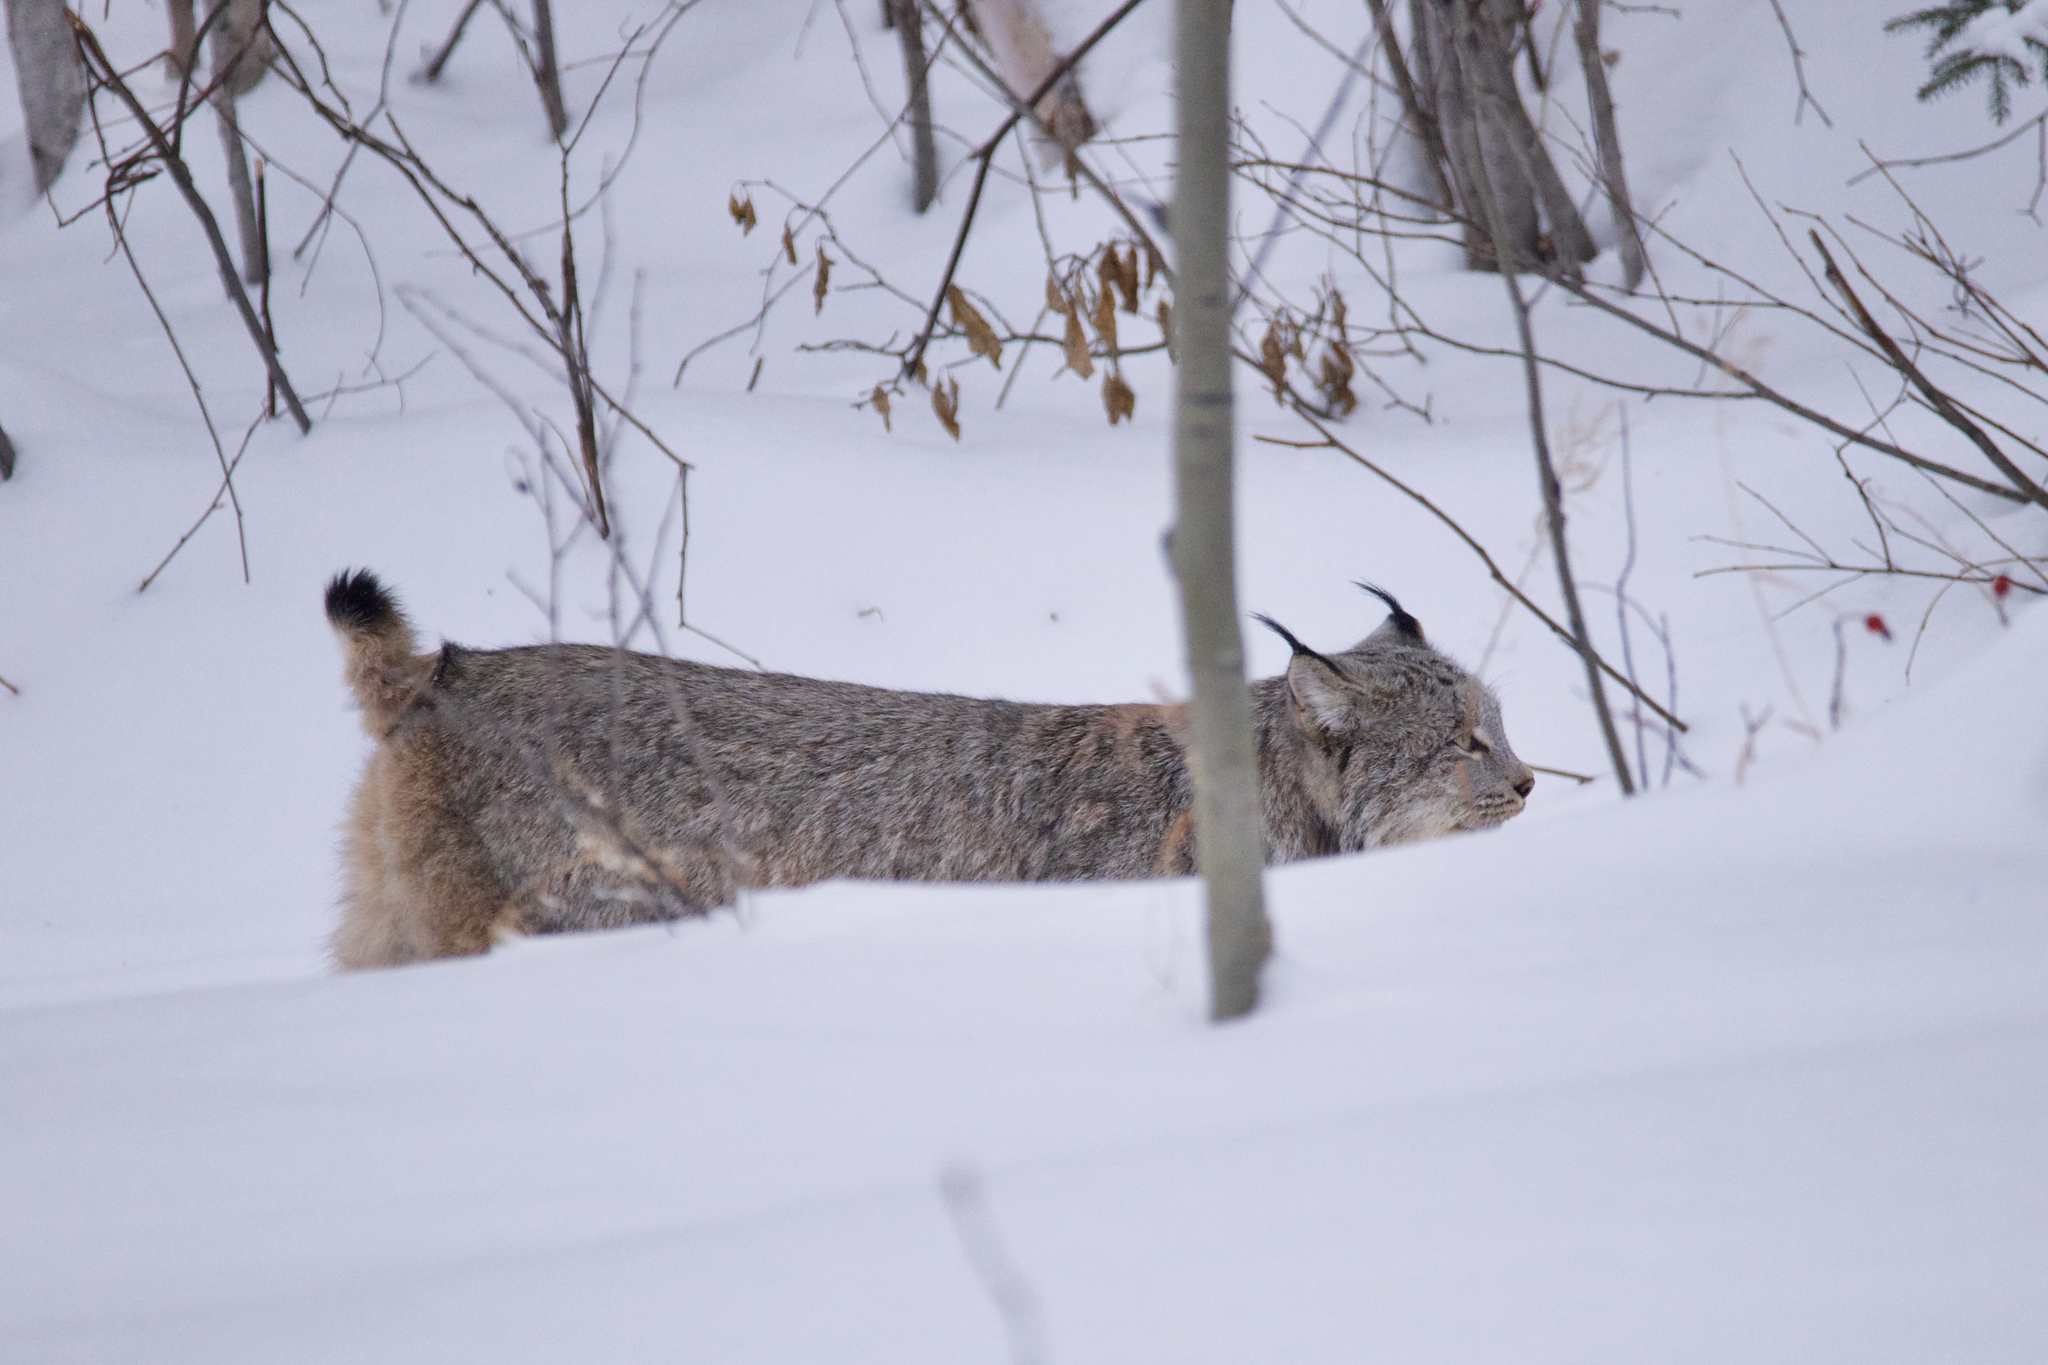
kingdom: Animalia
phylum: Chordata
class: Mammalia
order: Carnivora
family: Felidae
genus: Lynx
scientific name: Lynx canadensis
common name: Canadian lynx
